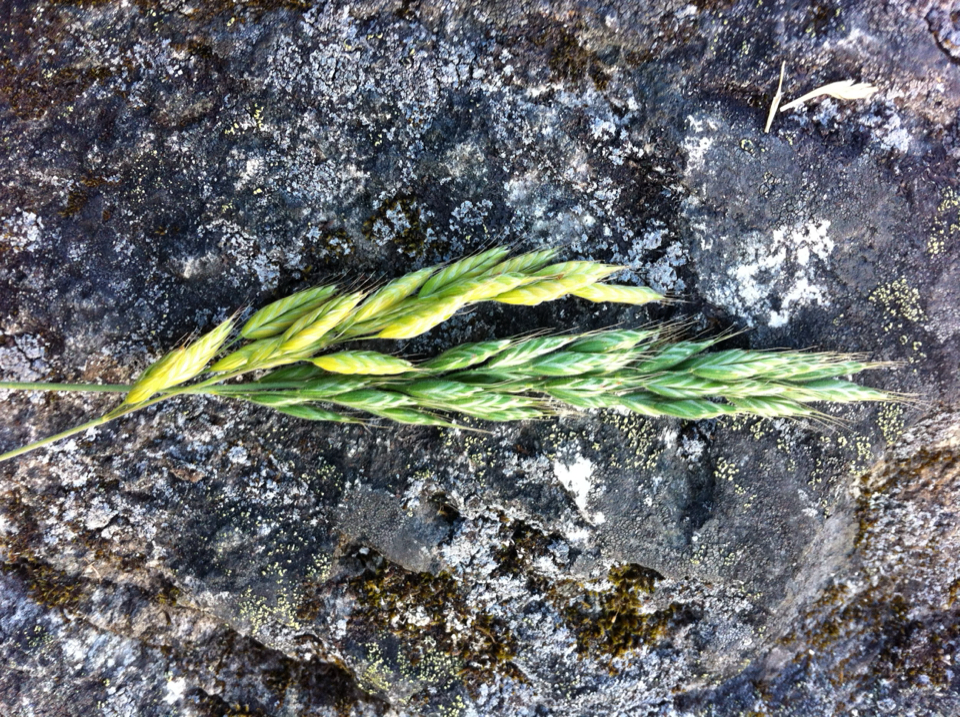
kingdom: Plantae
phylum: Tracheophyta
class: Liliopsida
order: Poales
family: Poaceae
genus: Bromus
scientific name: Bromus hordeaceus
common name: Soft brome
